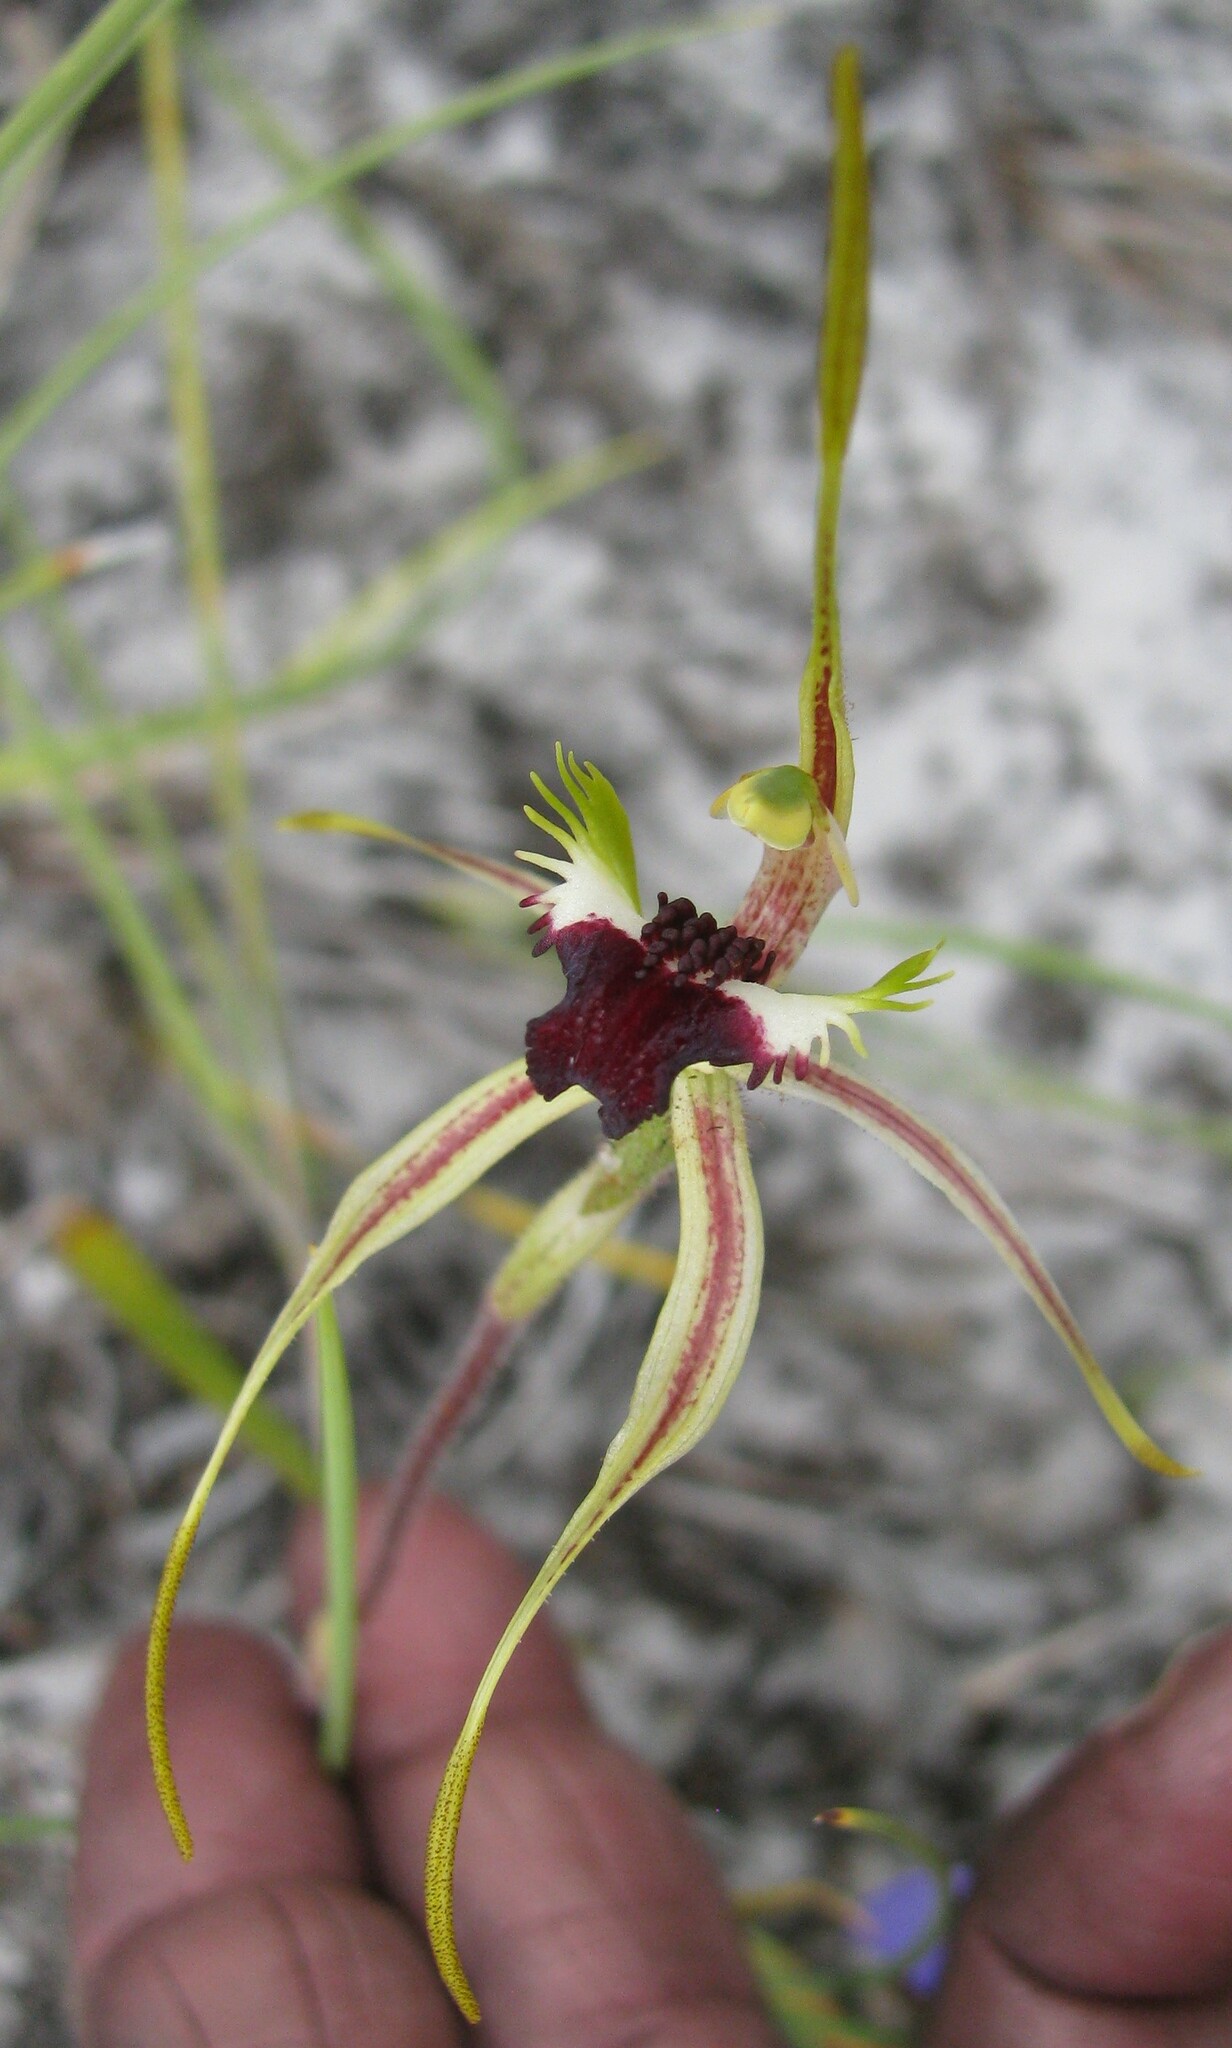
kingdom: Plantae
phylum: Tracheophyta
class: Liliopsida
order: Asparagales
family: Orchidaceae
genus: Caladenia
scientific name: Caladenia dilatata
